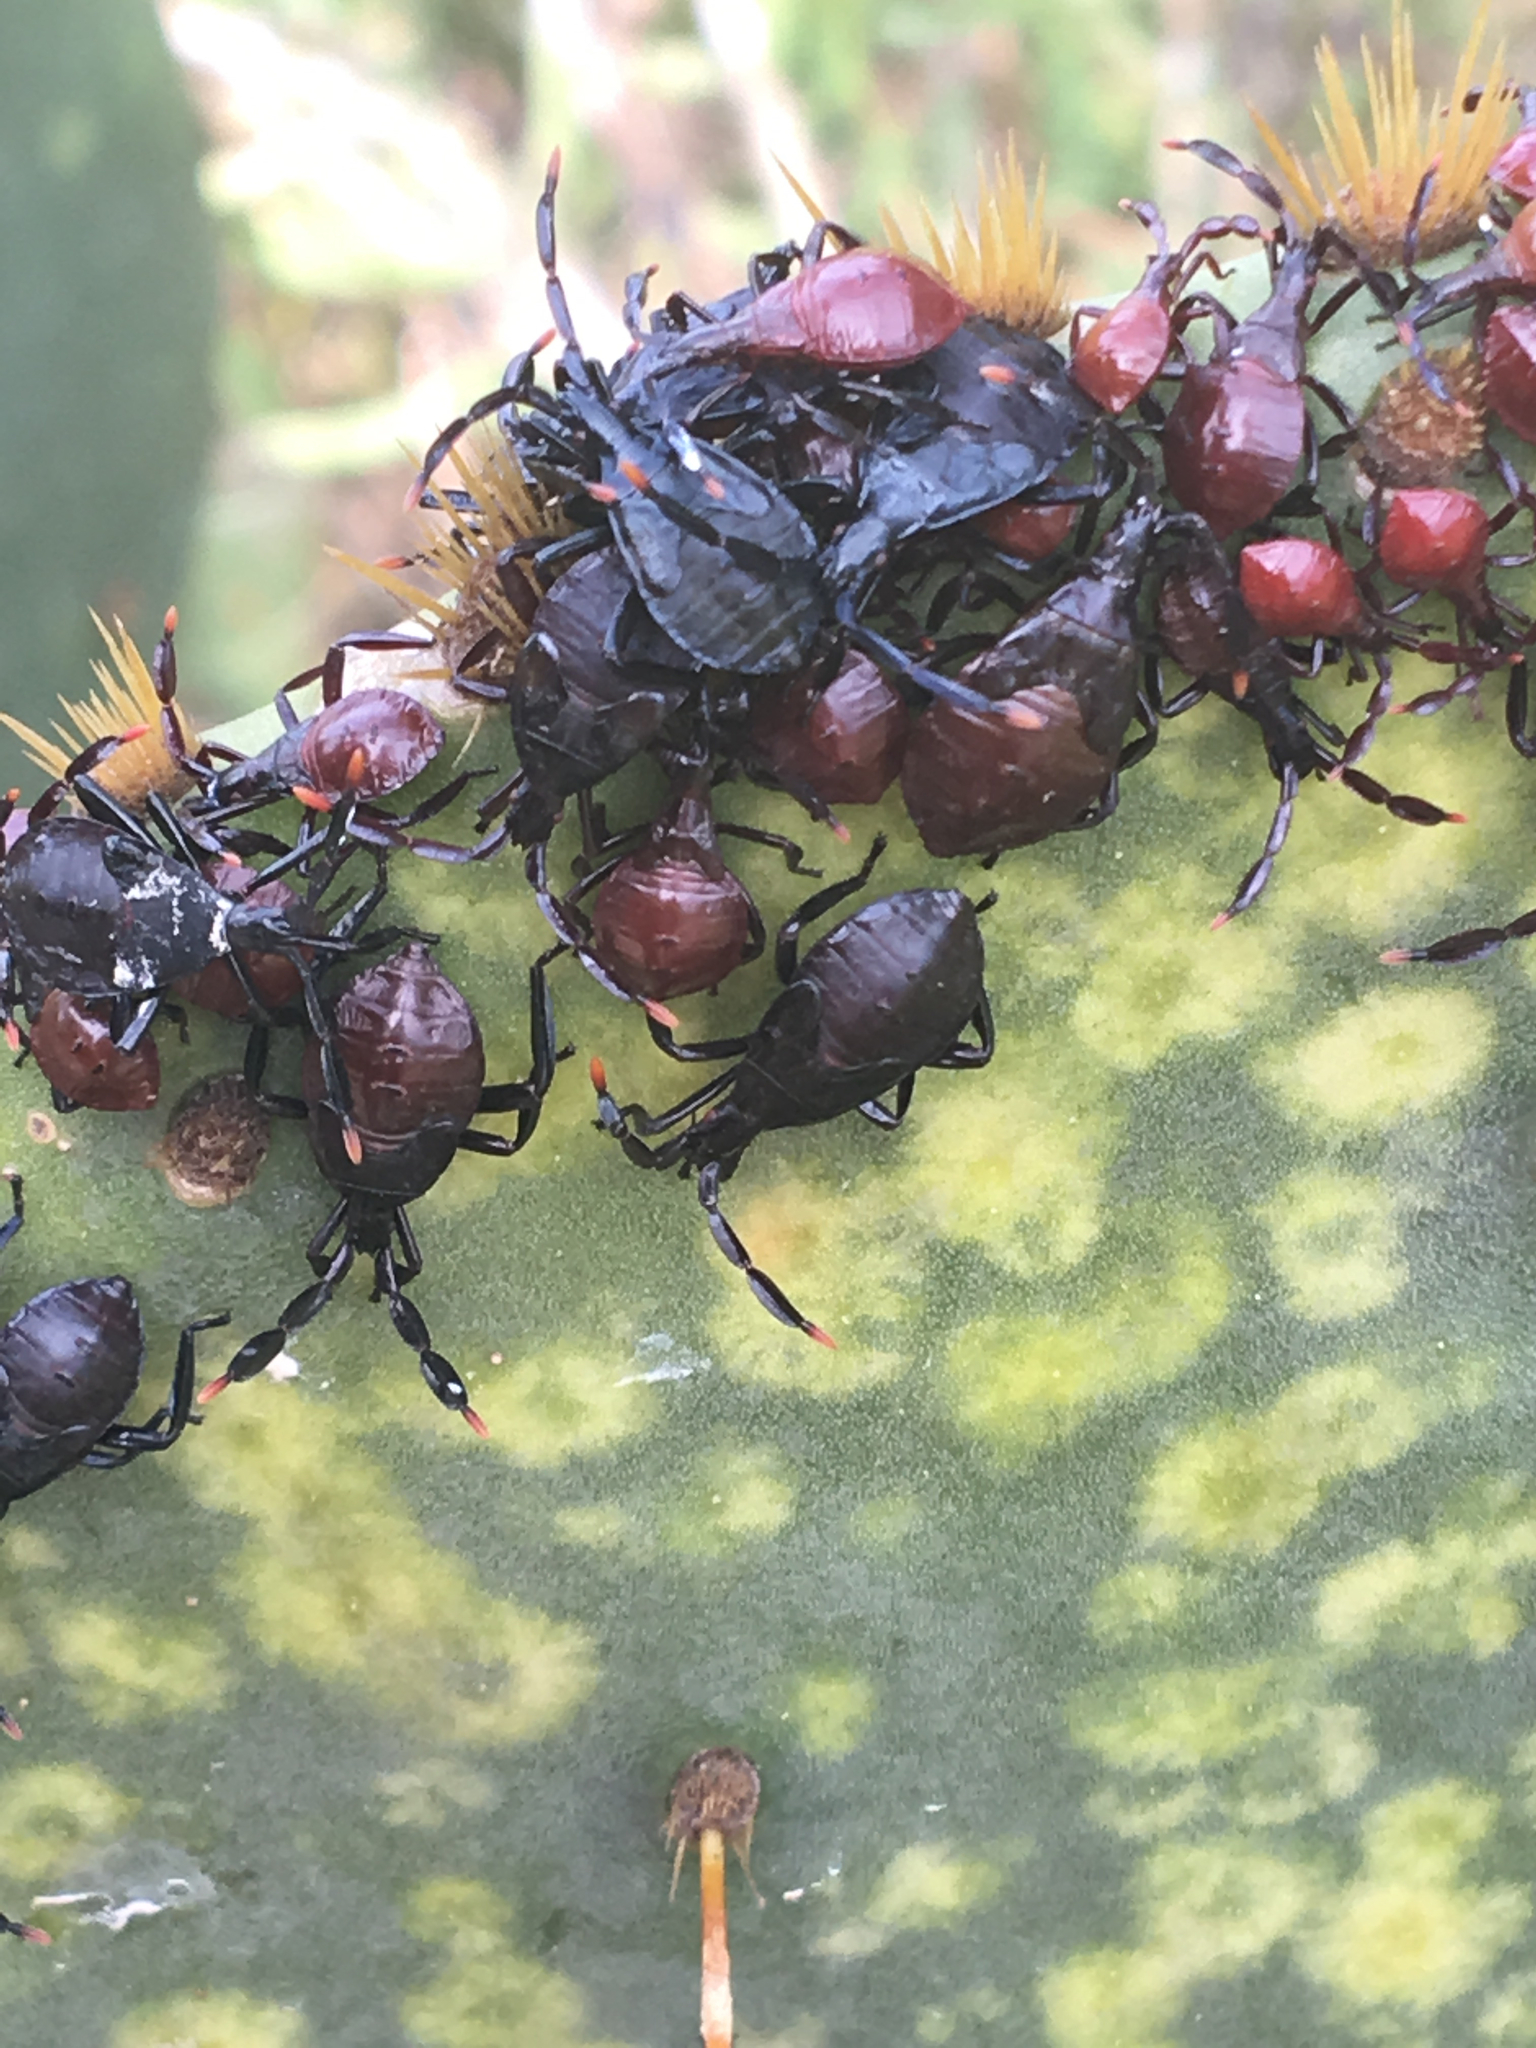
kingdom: Animalia
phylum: Arthropoda
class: Insecta
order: Hemiptera
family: Coreidae
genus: Chelinidea
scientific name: Chelinidea vittiger
